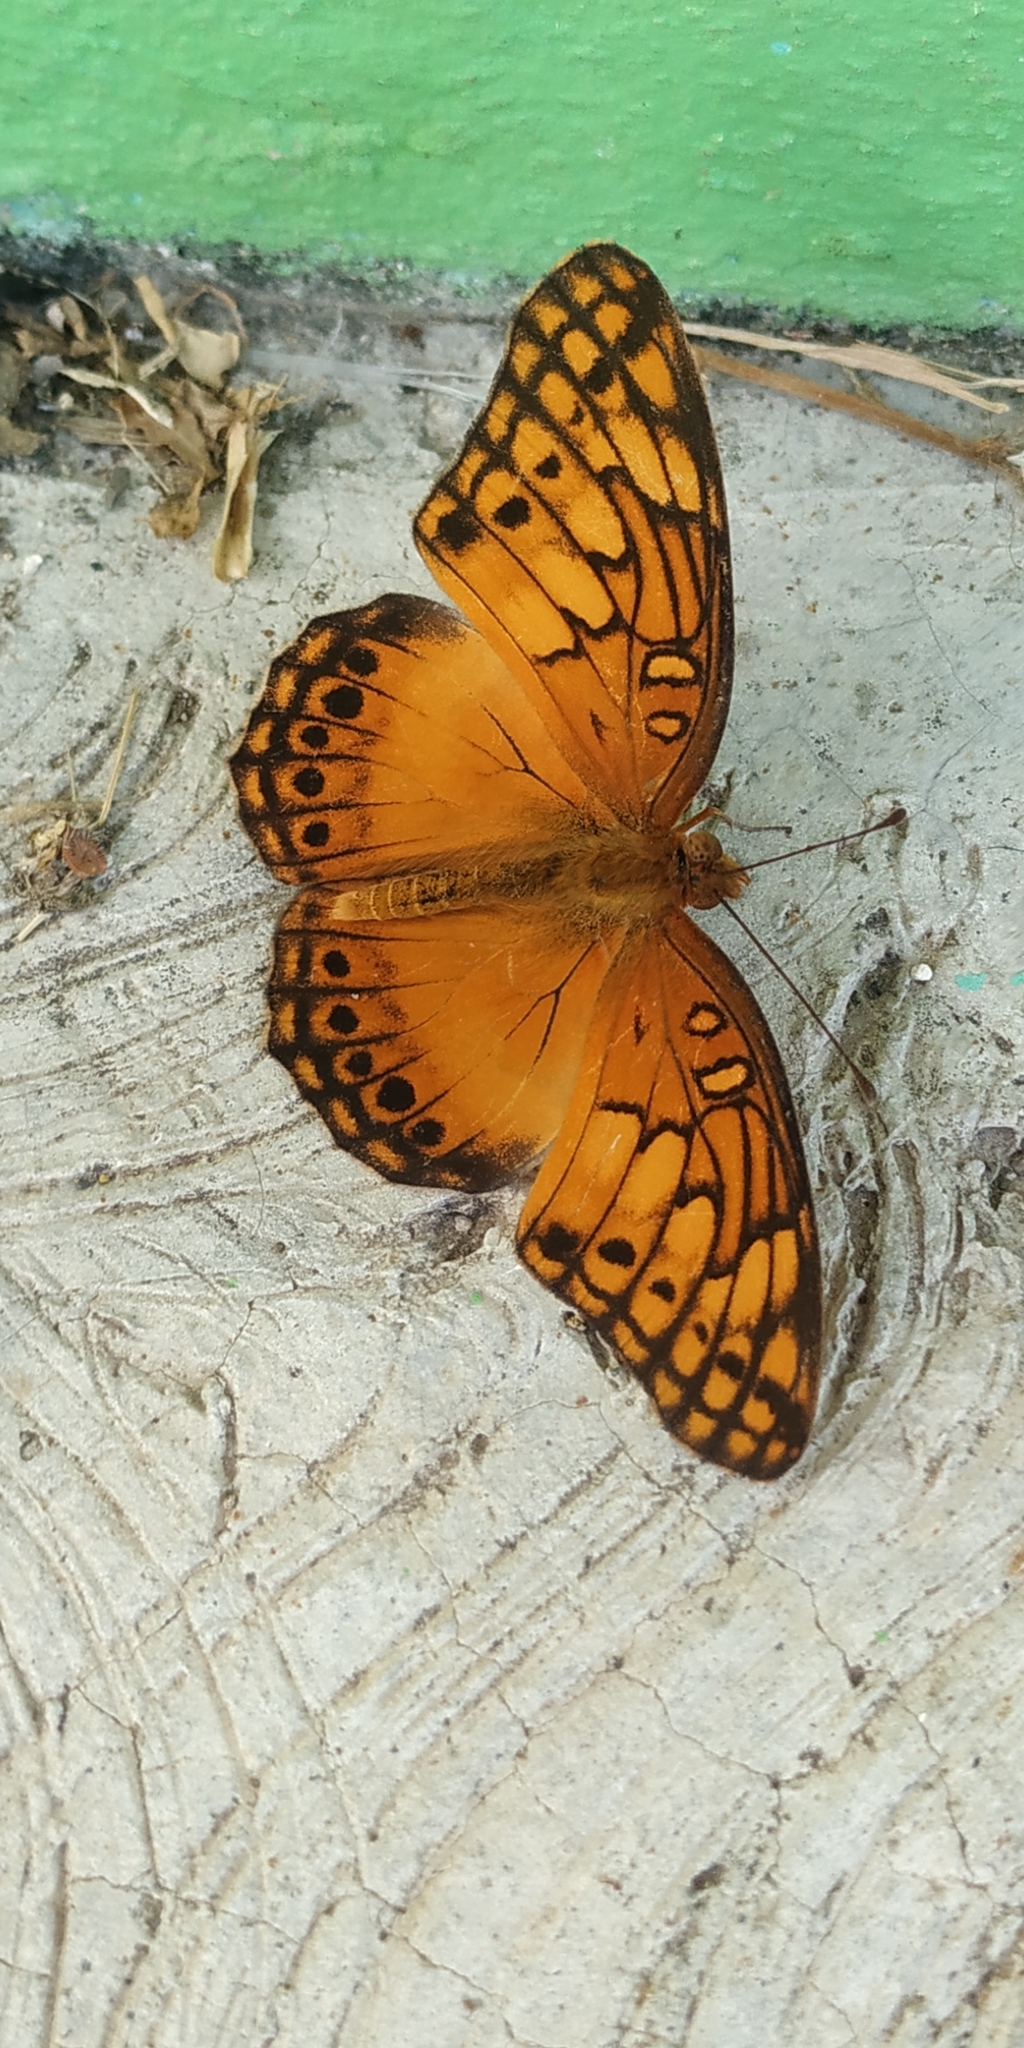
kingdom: Animalia
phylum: Arthropoda
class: Insecta
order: Lepidoptera
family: Nymphalidae
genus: Euptoieta
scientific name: Euptoieta hegesia
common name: Mexican fritillary
